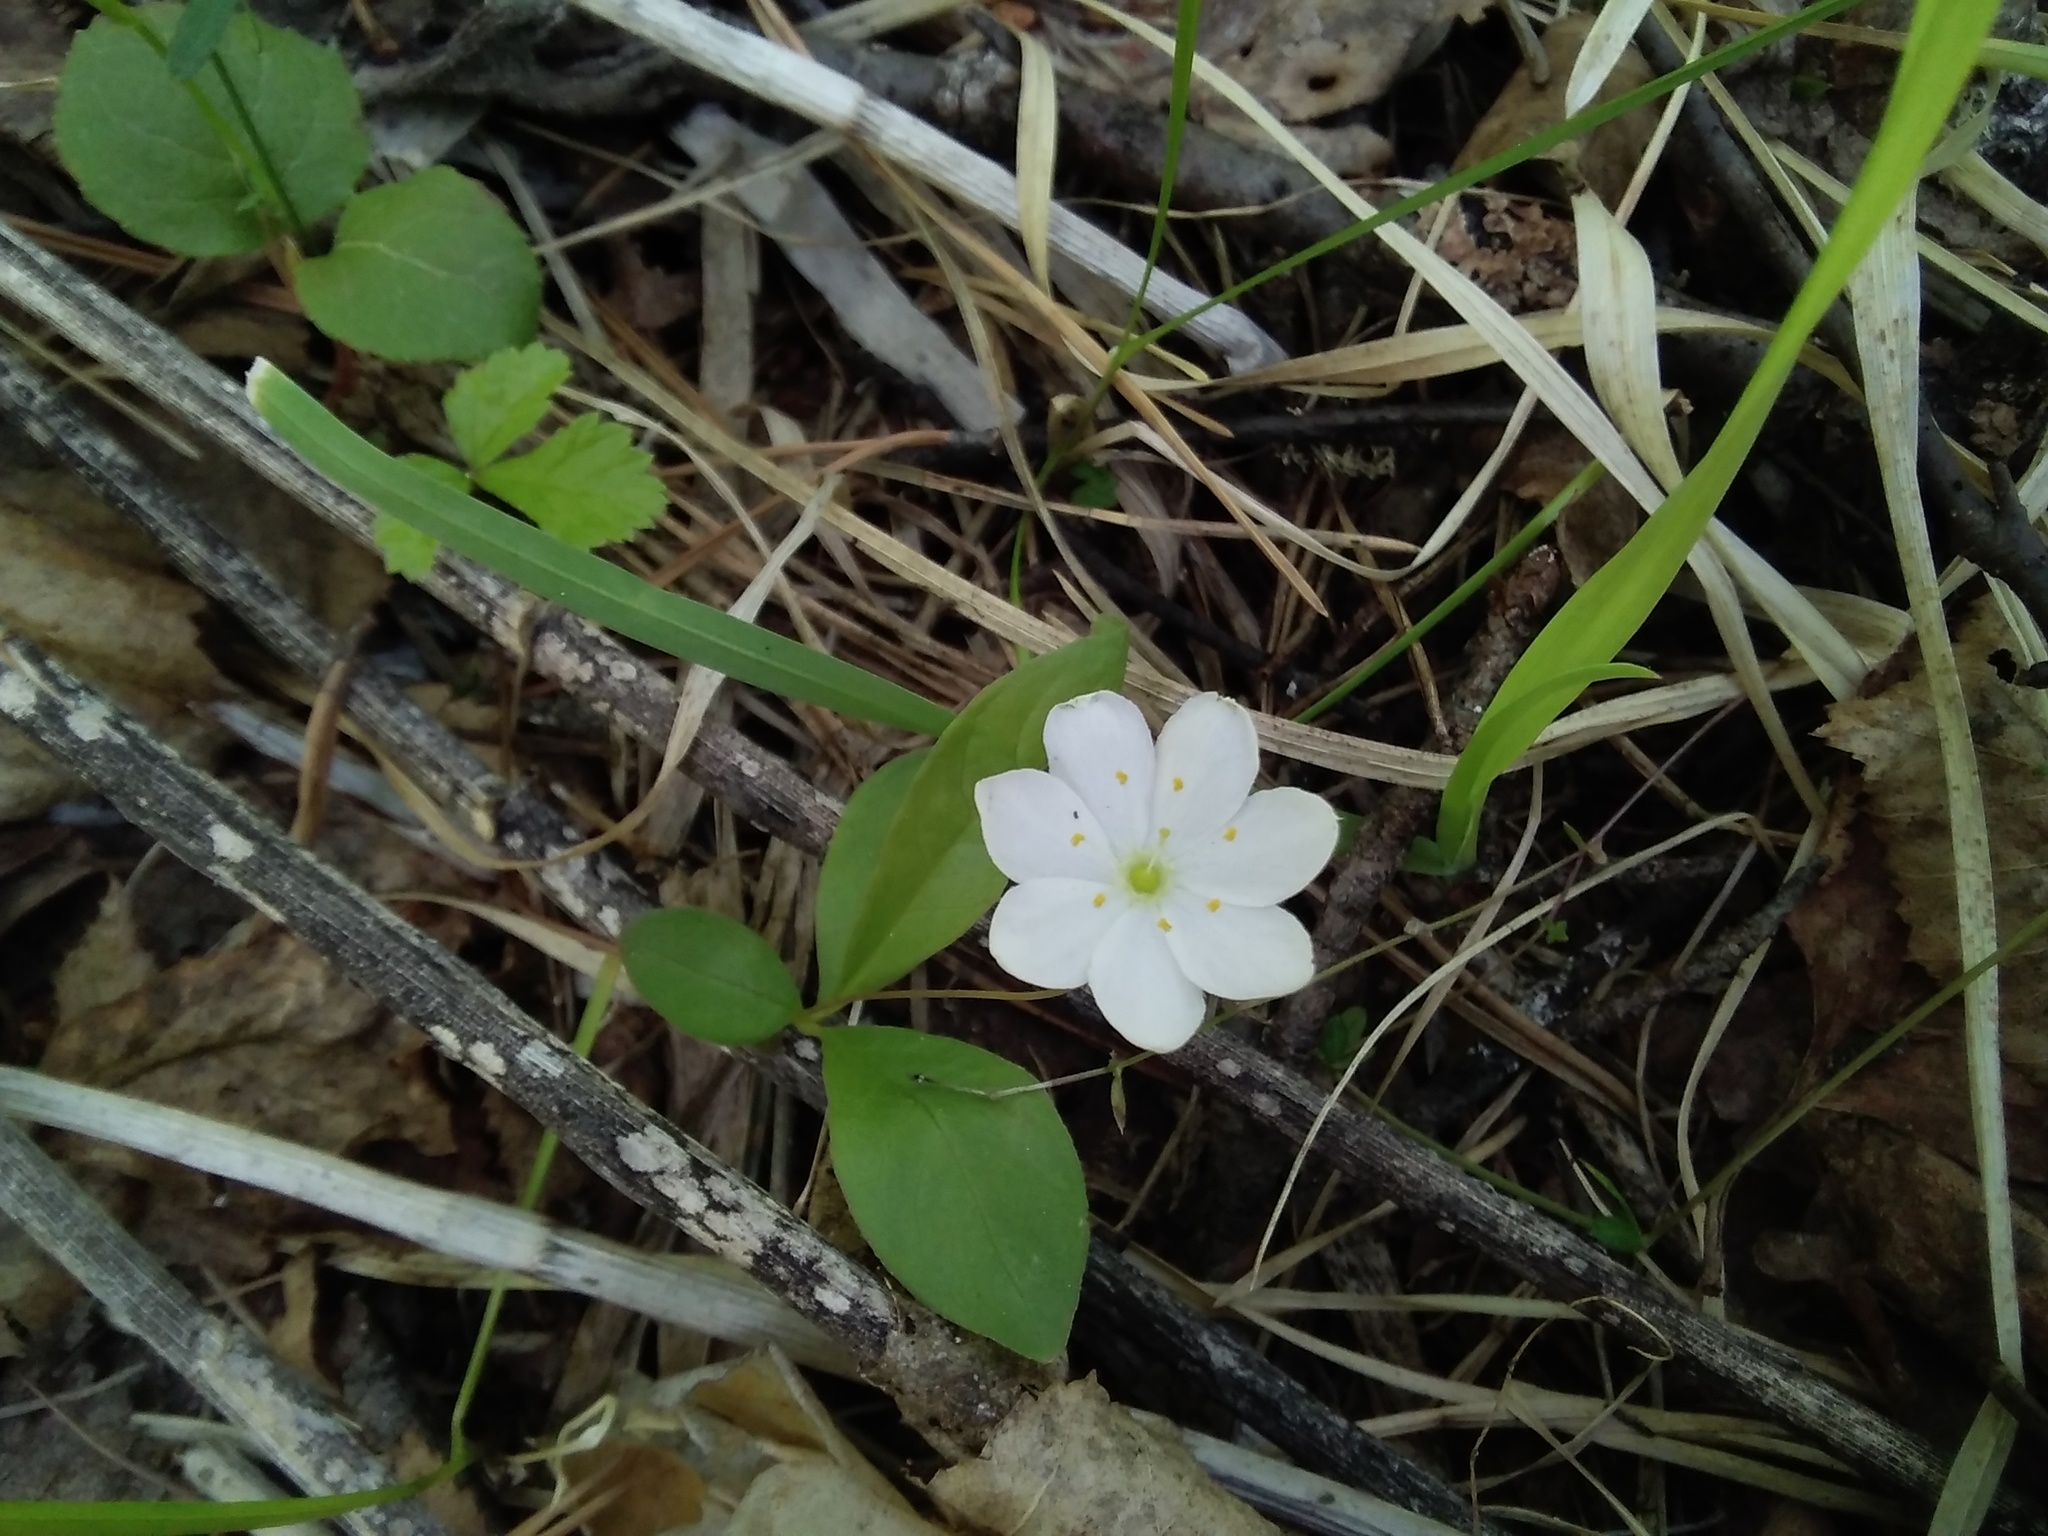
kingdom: Plantae
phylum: Tracheophyta
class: Magnoliopsida
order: Ericales
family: Primulaceae
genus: Lysimachia
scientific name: Lysimachia europaea
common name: Arctic starflower
